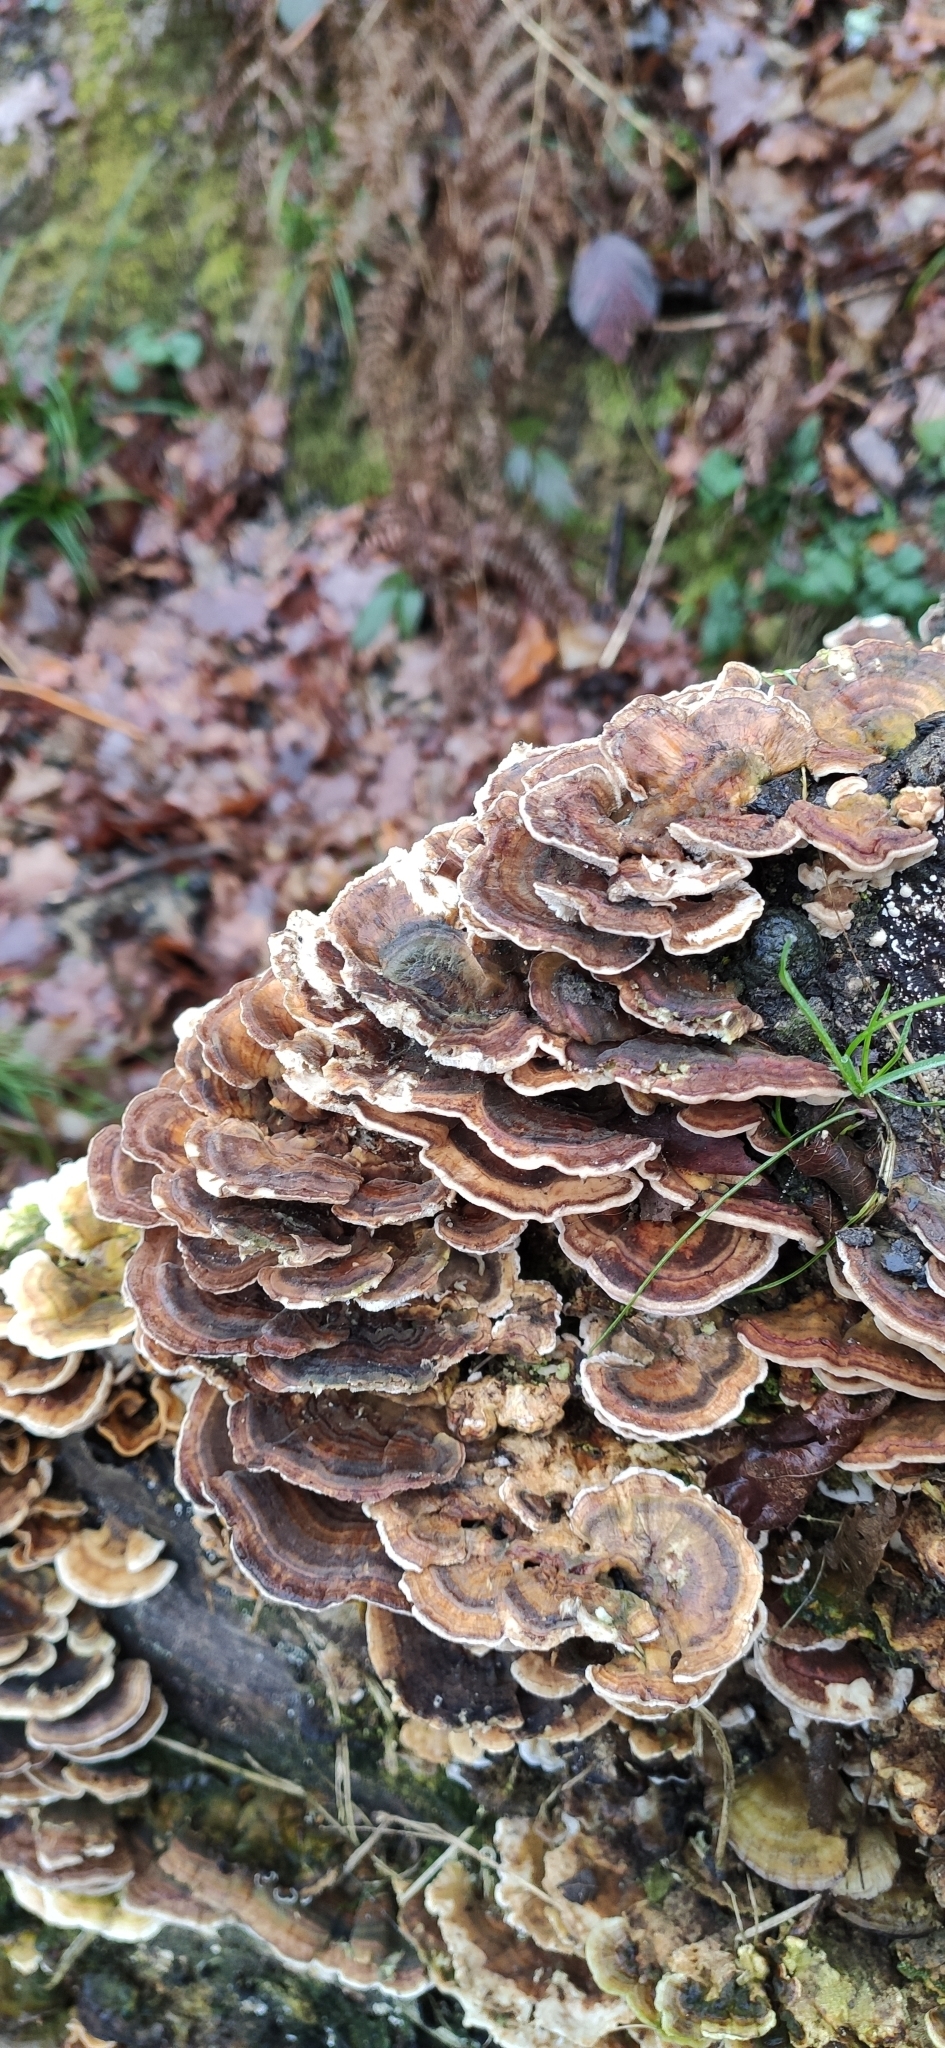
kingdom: Fungi
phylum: Basidiomycota
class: Agaricomycetes
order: Polyporales
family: Polyporaceae
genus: Trametes
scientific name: Trametes versicolor
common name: Turkeytail
